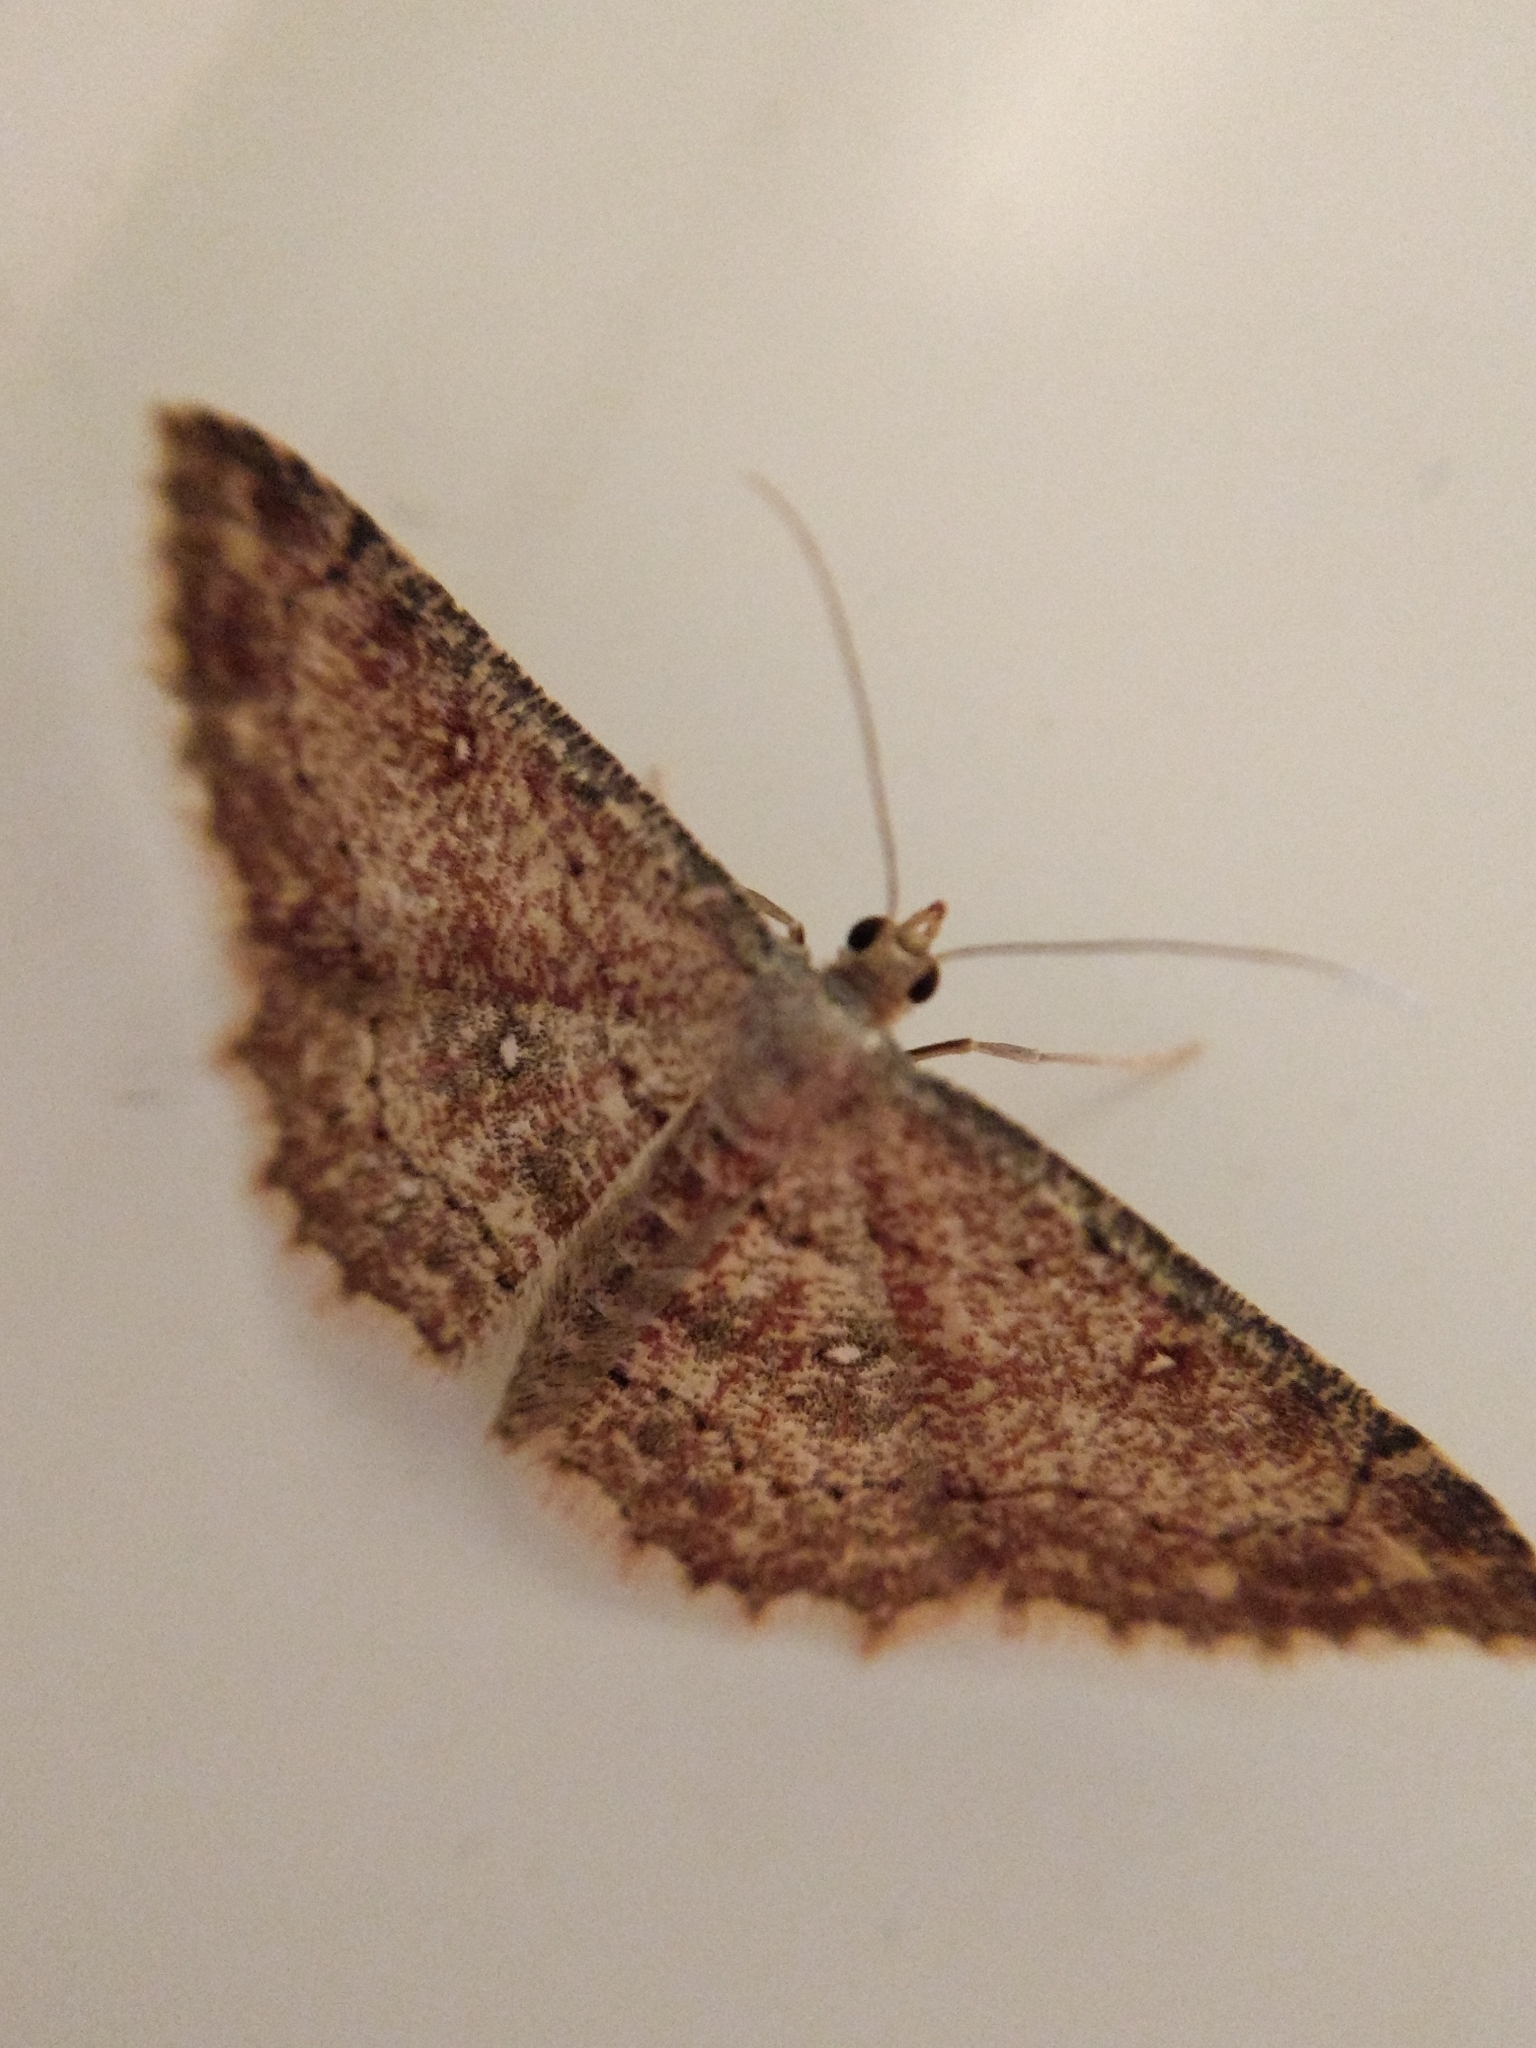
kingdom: Animalia
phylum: Arthropoda
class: Insecta
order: Lepidoptera
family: Geometridae
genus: Cyclophora
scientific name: Cyclophora nanaria
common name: Cankerworm
